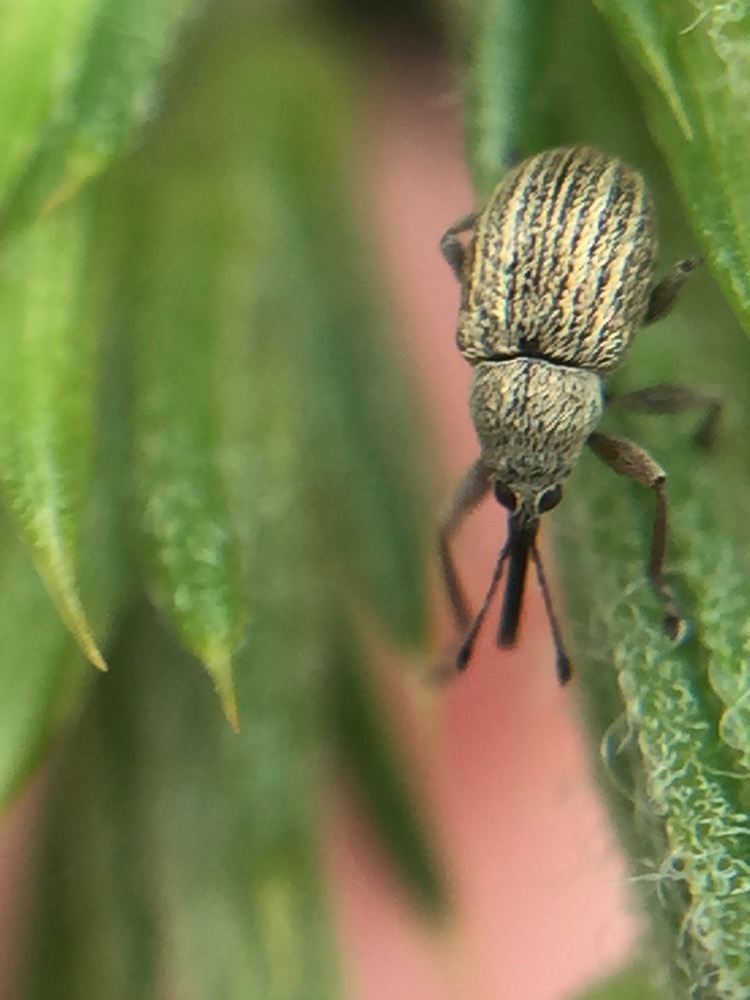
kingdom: Animalia
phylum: Arthropoda
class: Insecta
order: Coleoptera
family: Brentidae
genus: Exapion
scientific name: Exapion ulicis
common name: Gorse seed weevil
